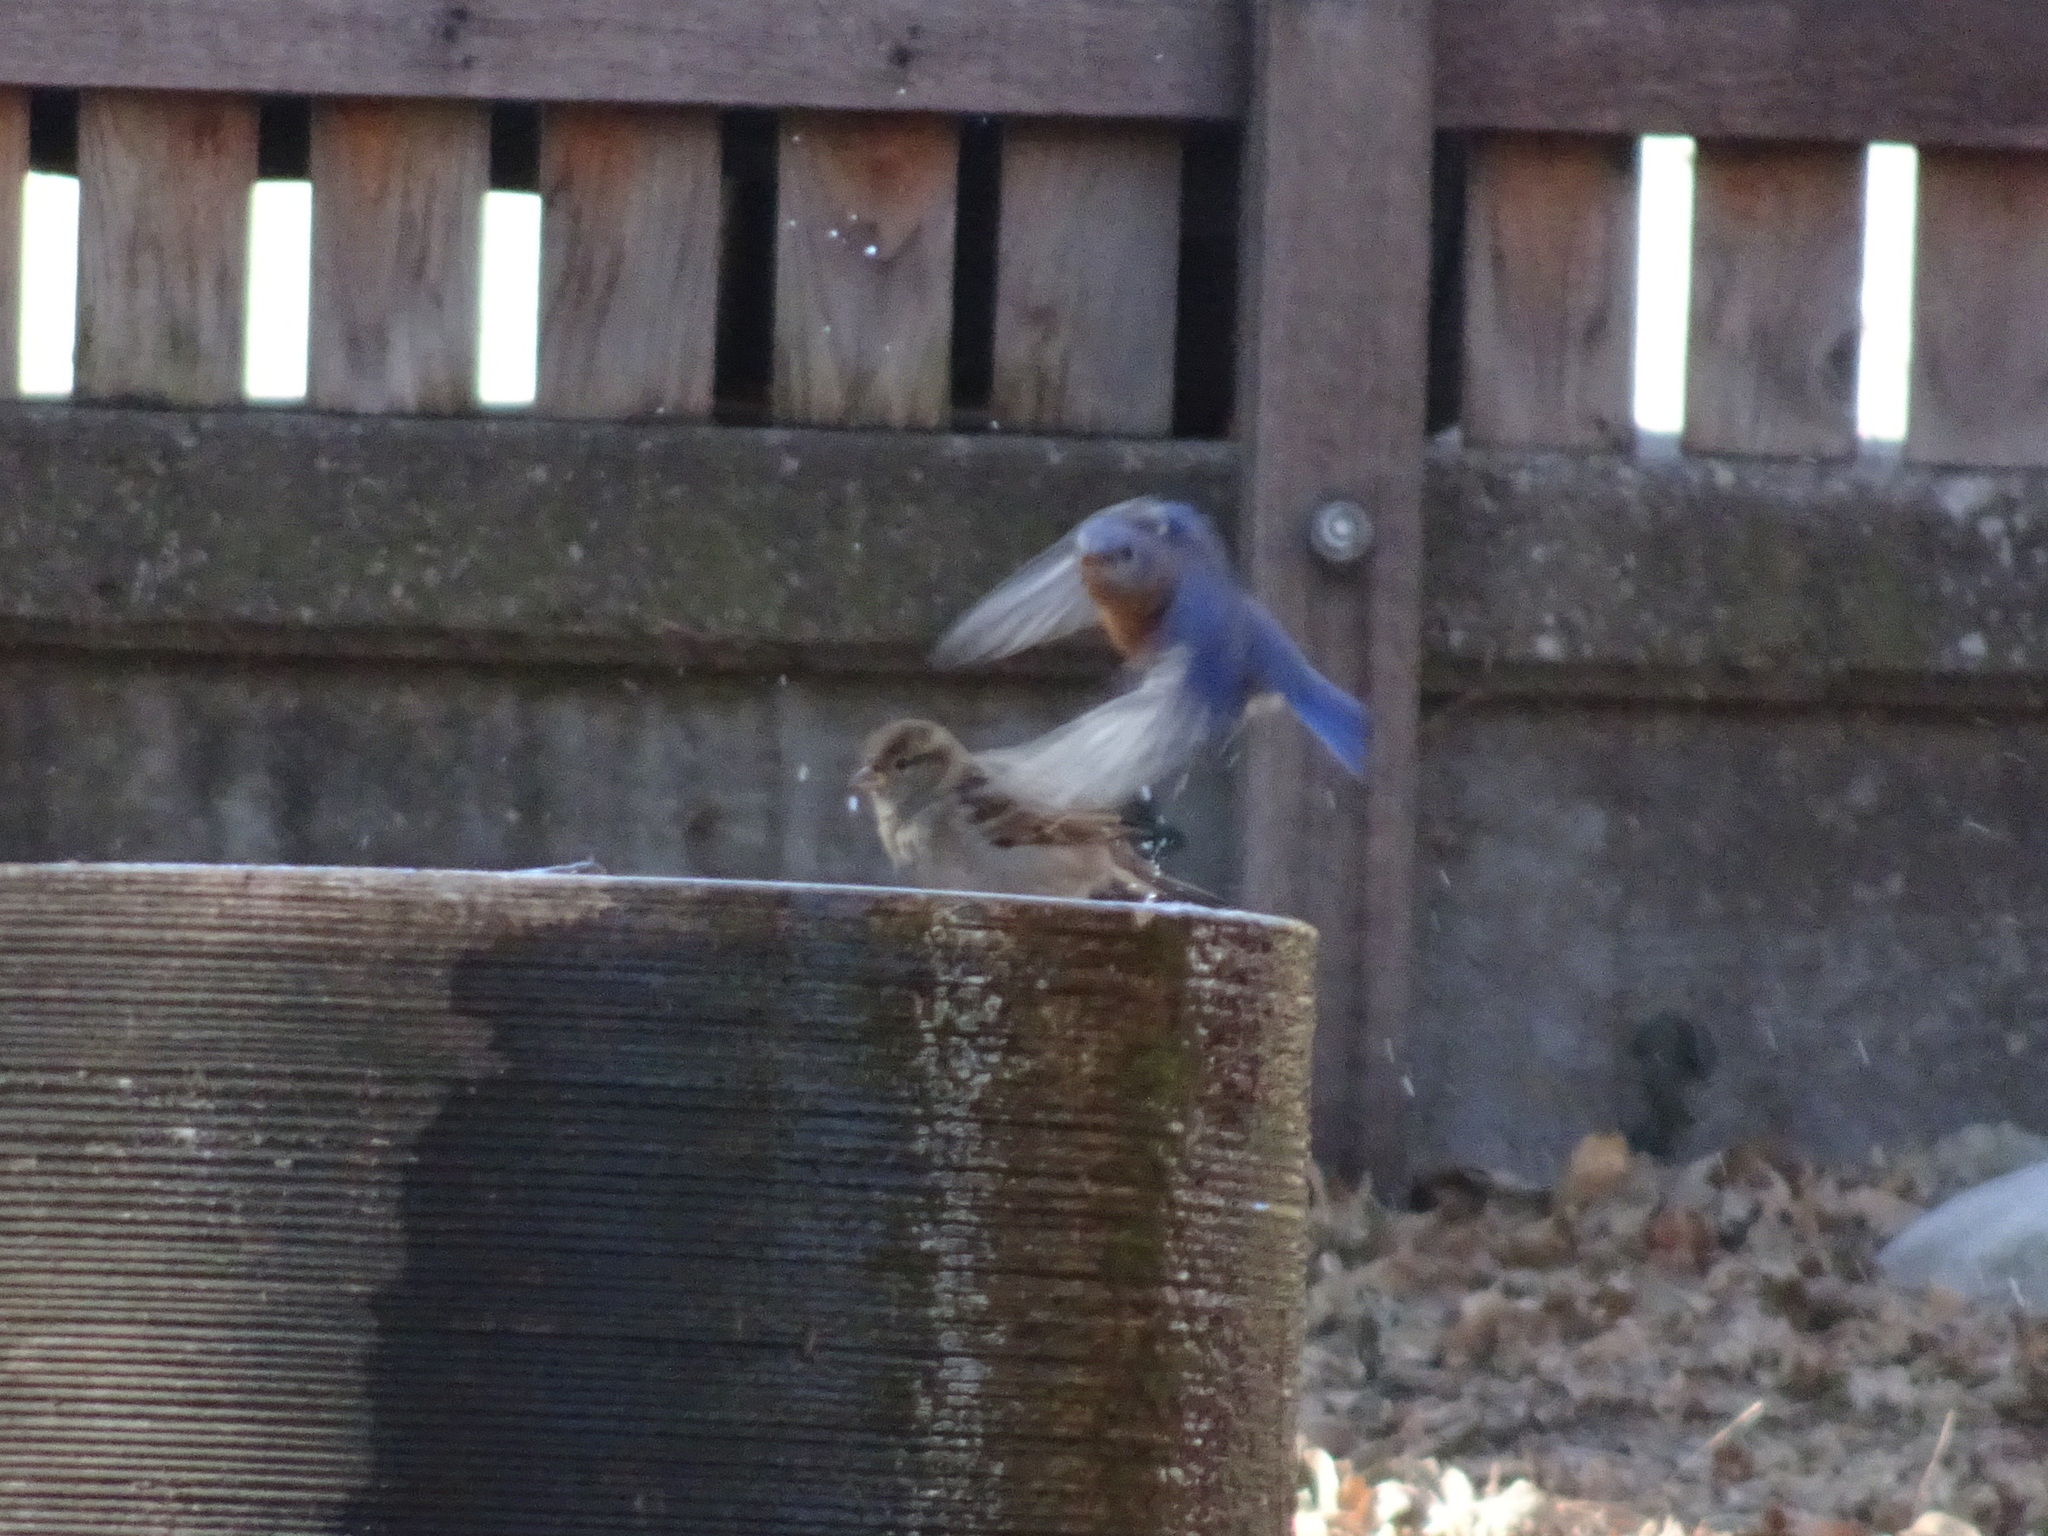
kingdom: Animalia
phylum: Chordata
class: Aves
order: Passeriformes
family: Turdidae
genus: Sialia
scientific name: Sialia sialis
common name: Eastern bluebird
